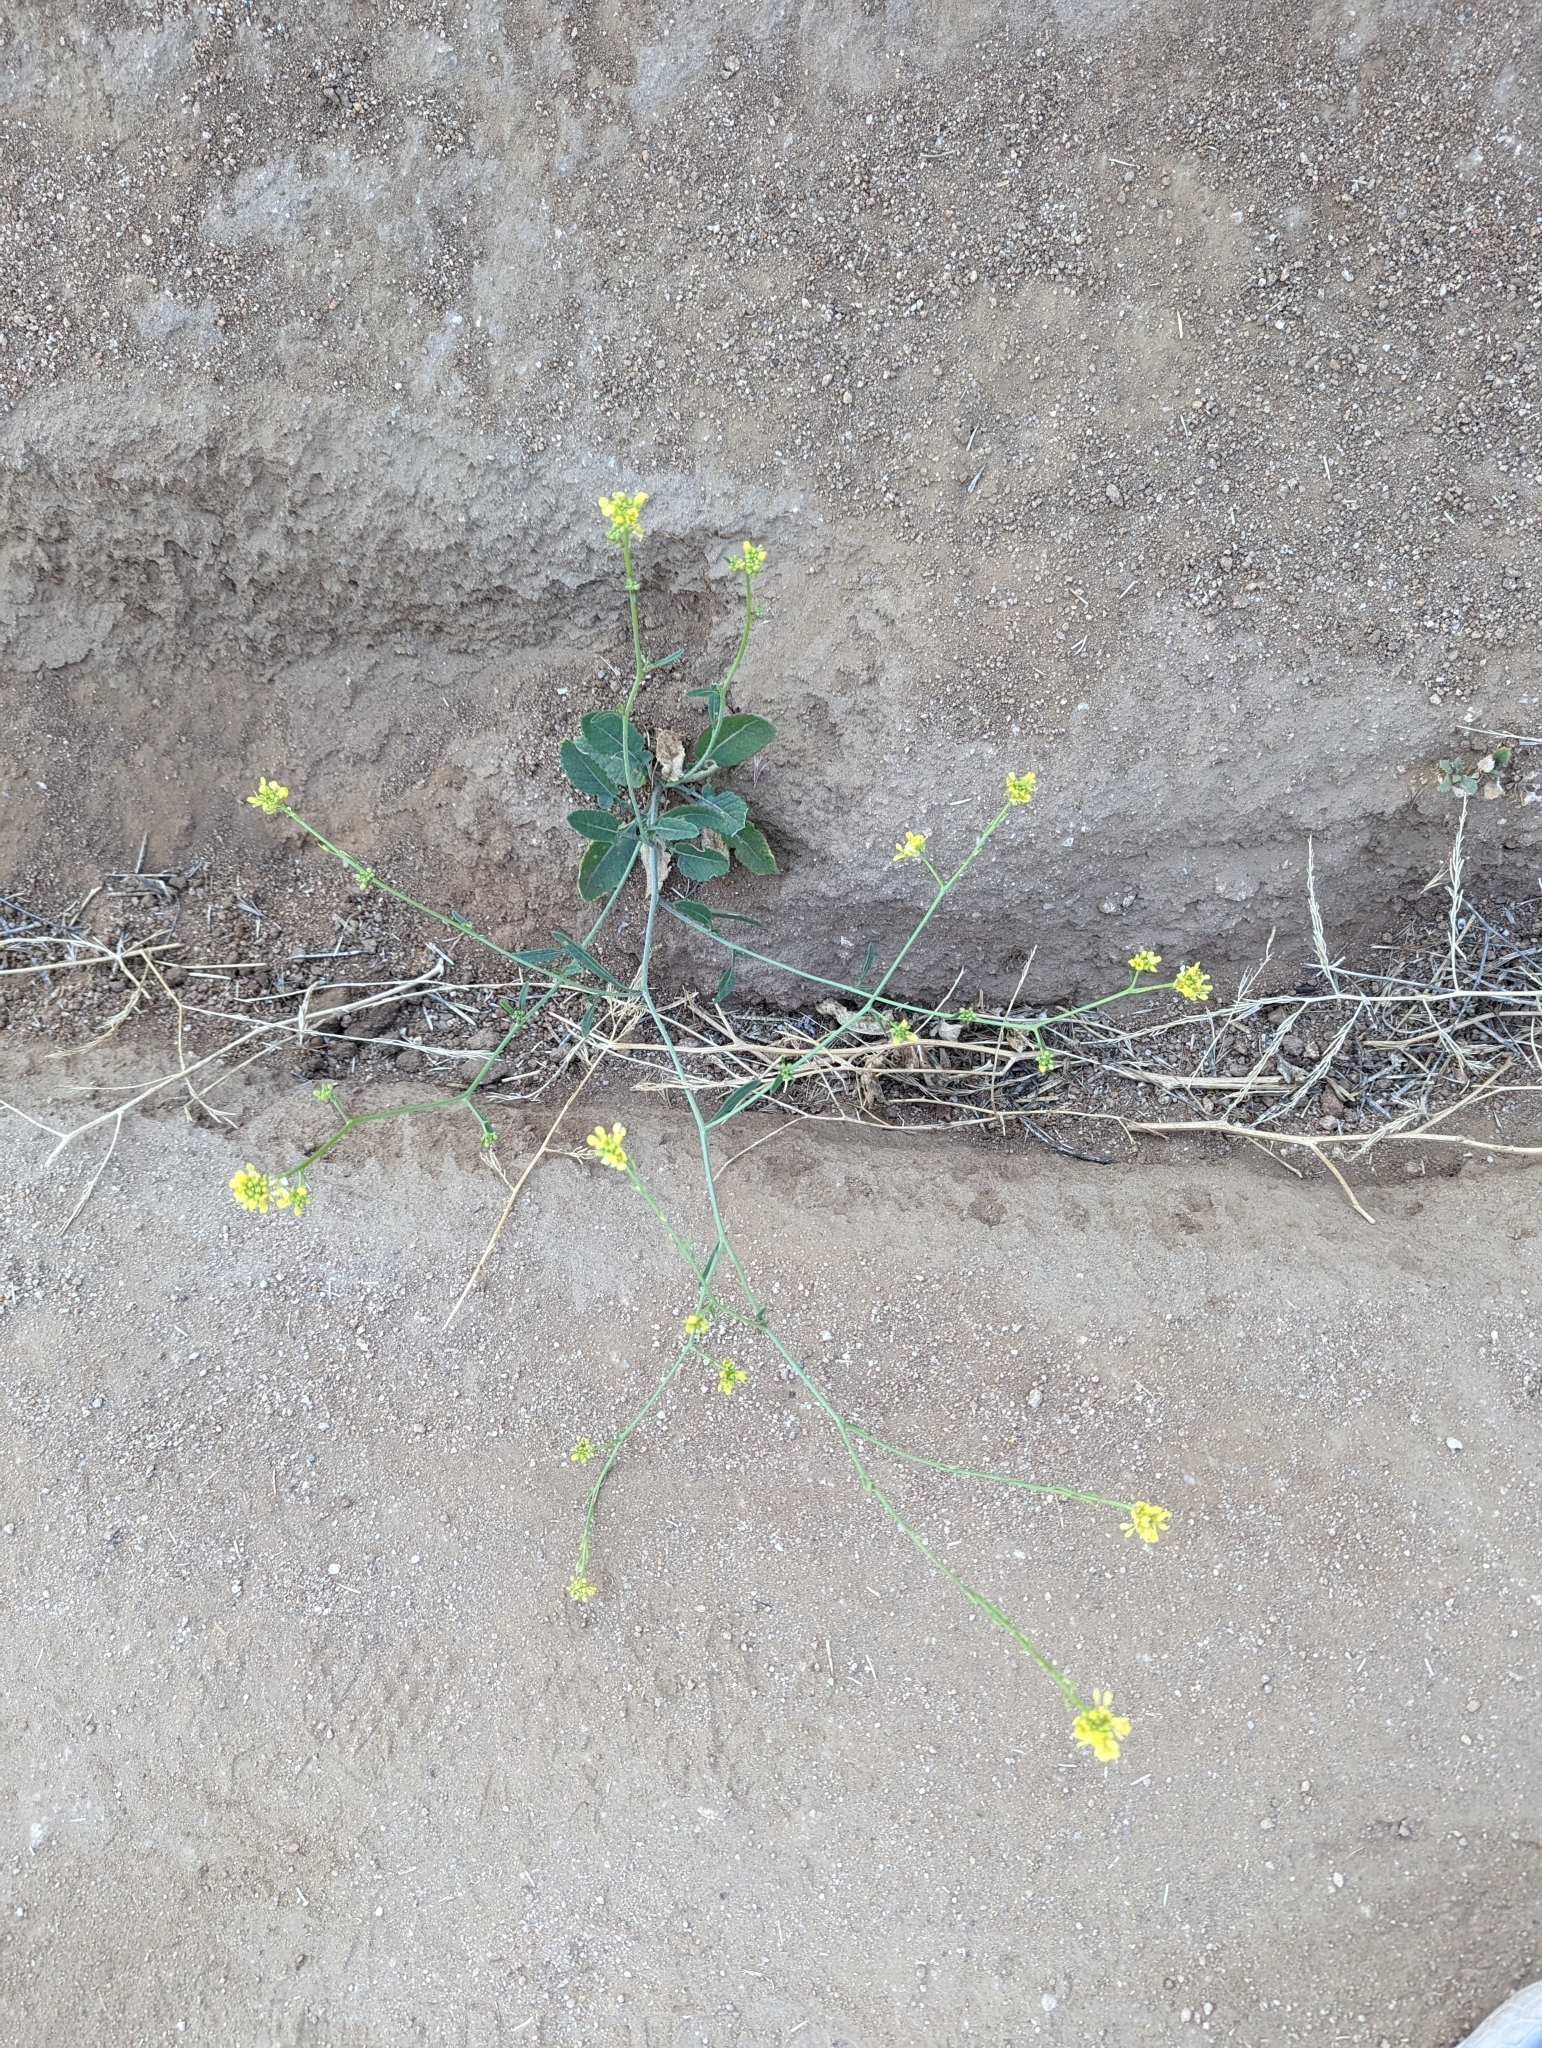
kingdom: Plantae
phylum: Tracheophyta
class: Magnoliopsida
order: Brassicales
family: Brassicaceae
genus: Hirschfeldia
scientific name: Hirschfeldia incana
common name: Hoary mustard
